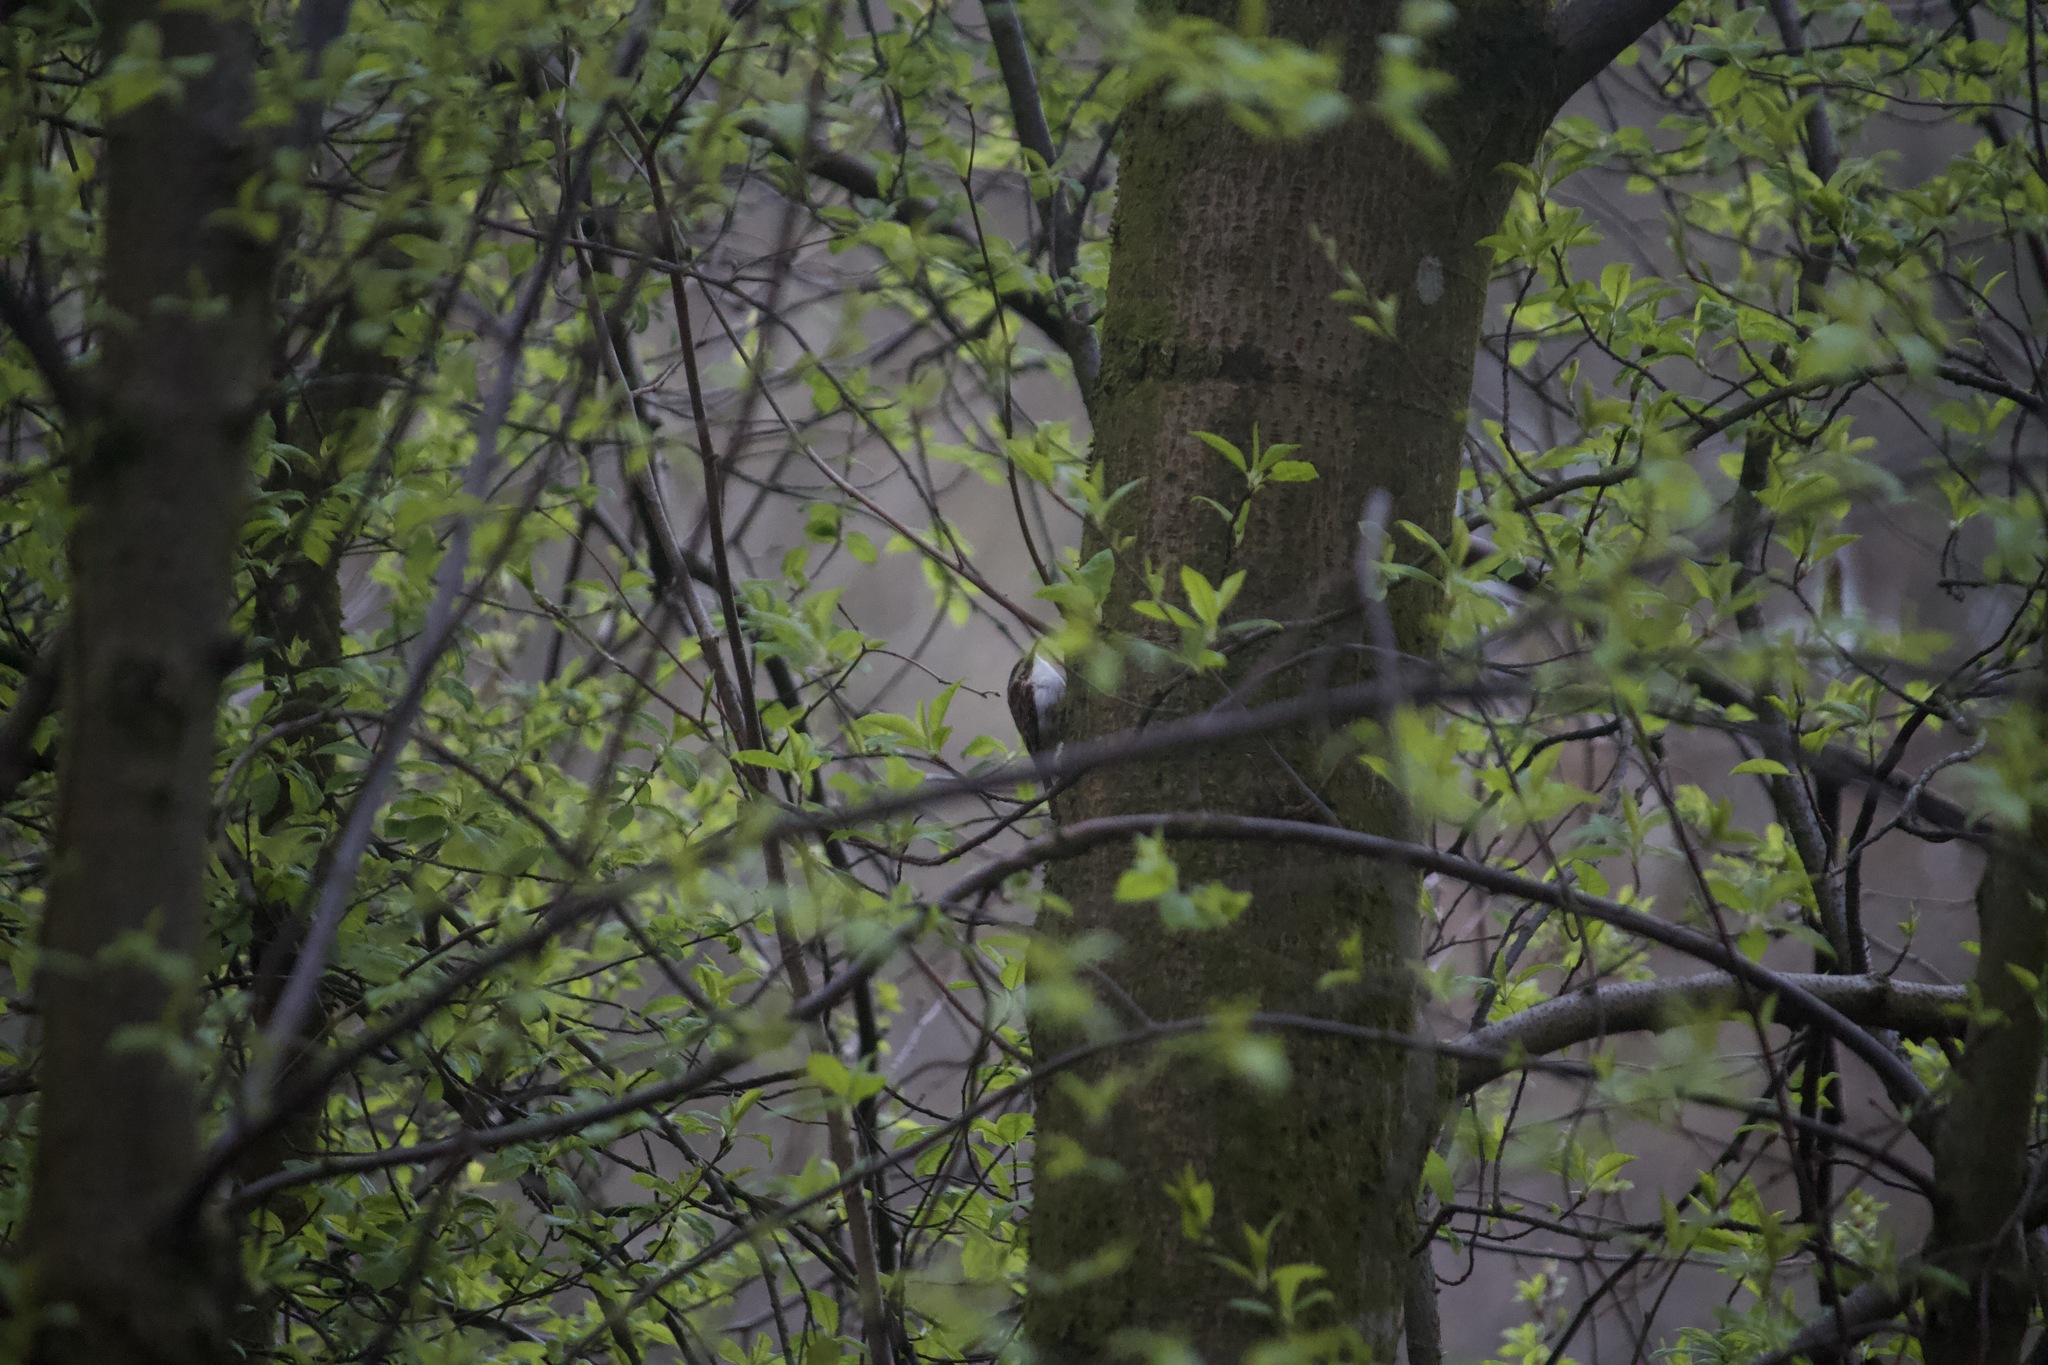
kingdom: Animalia
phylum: Chordata
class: Aves
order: Passeriformes
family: Certhiidae
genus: Certhia
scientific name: Certhia familiaris
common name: Eurasian treecreeper
